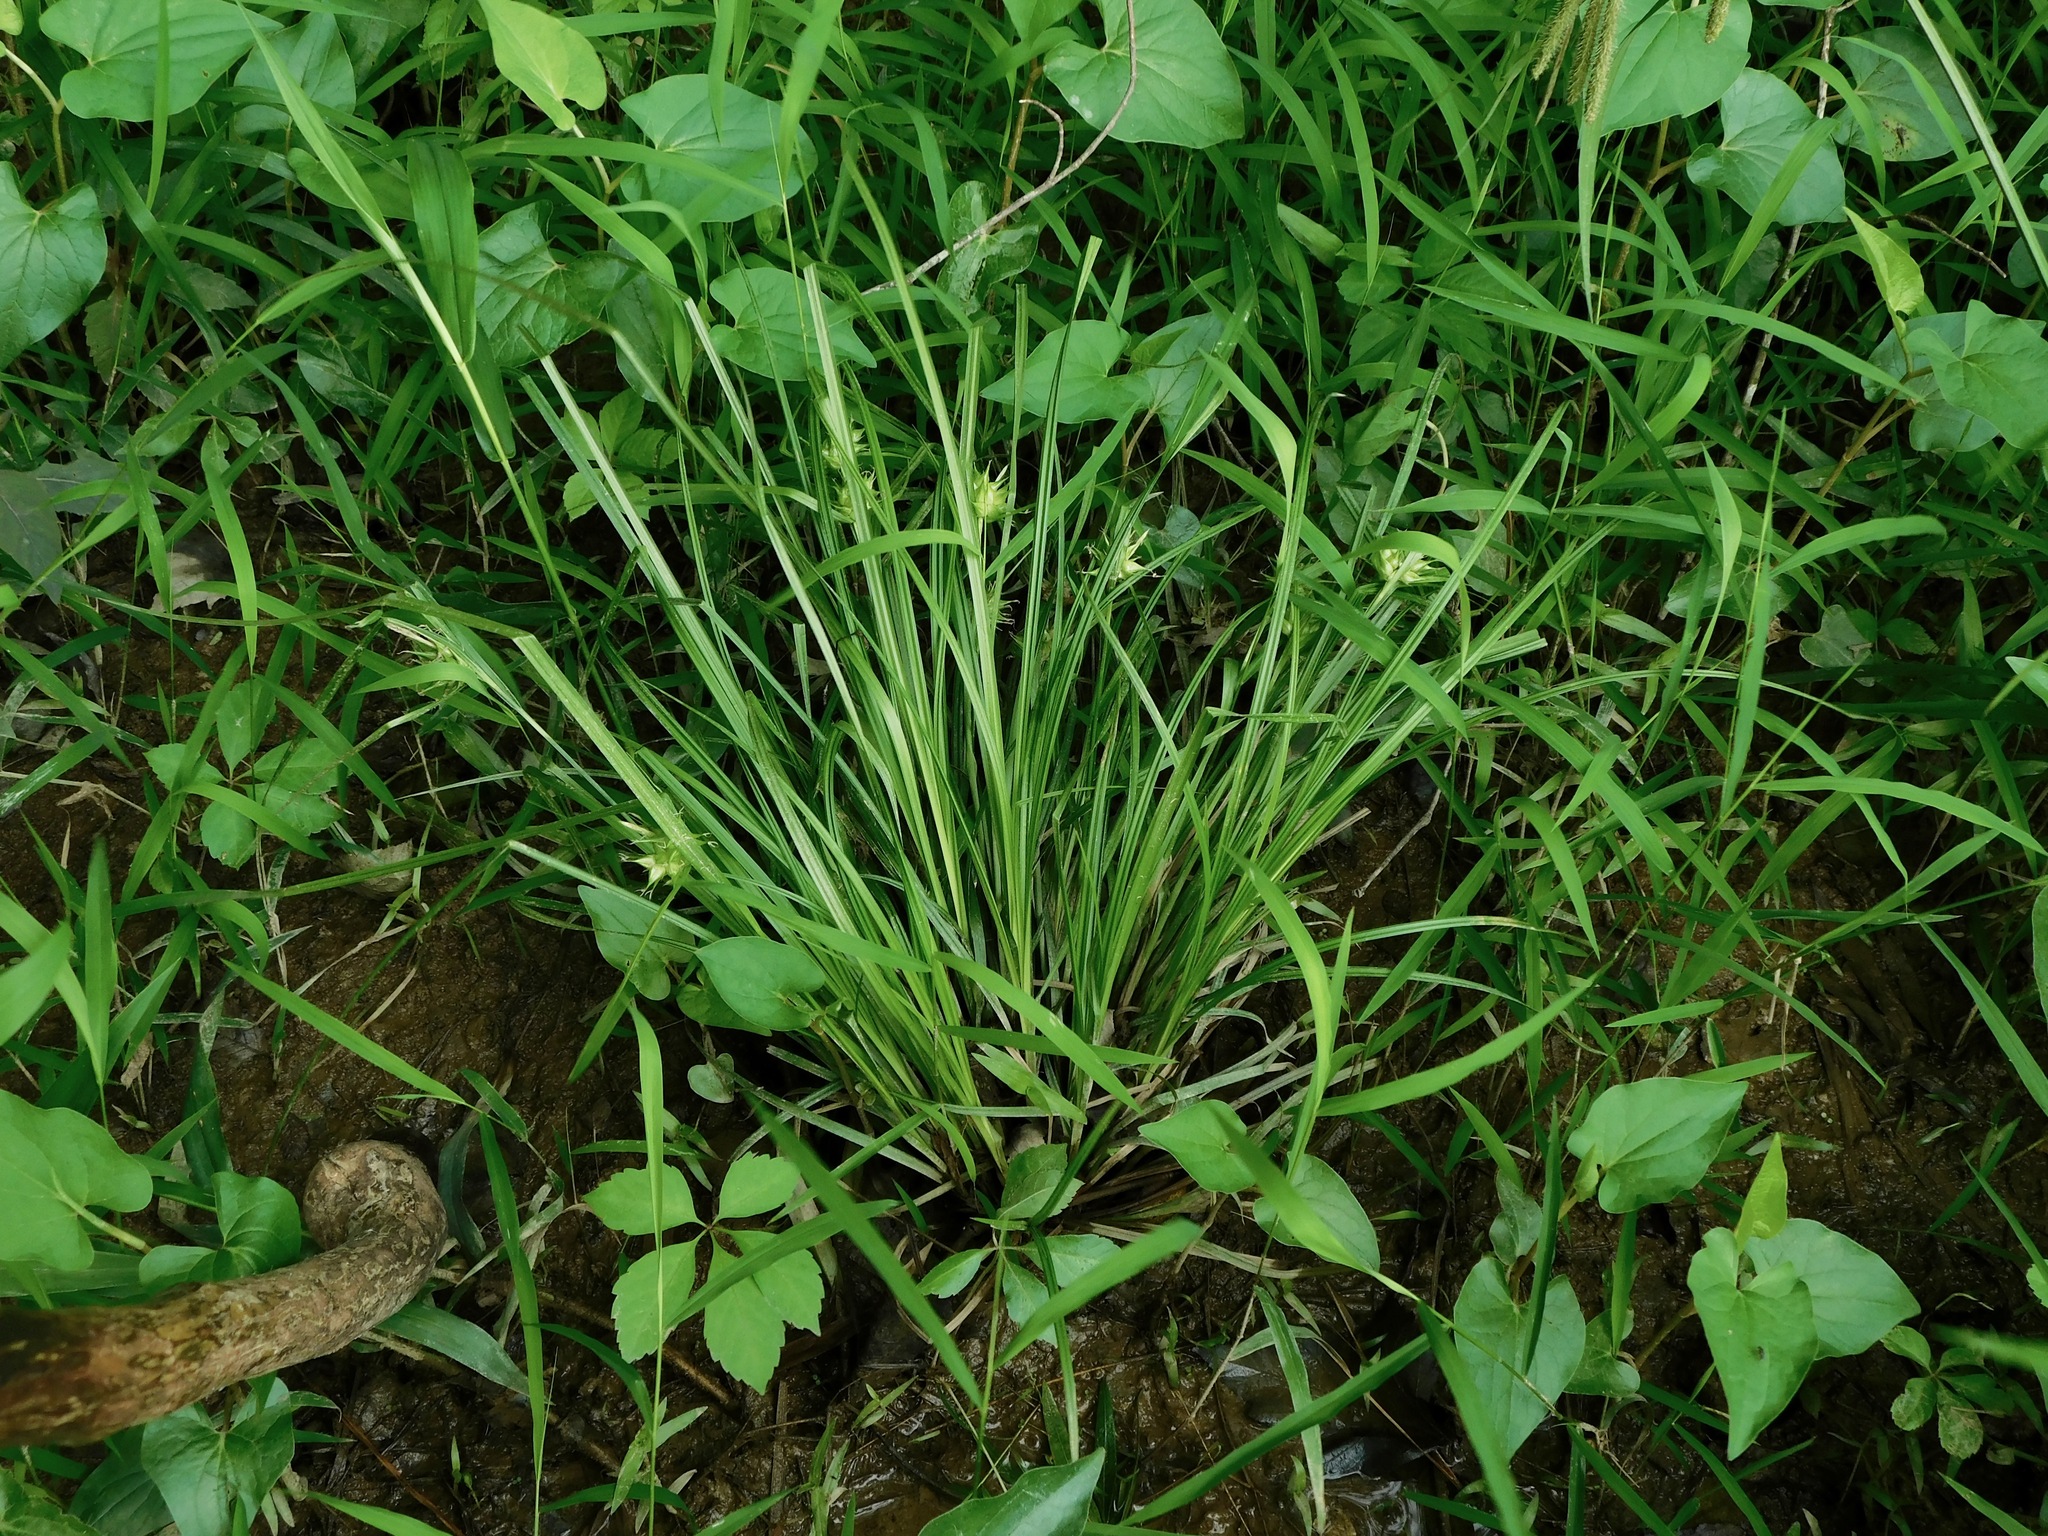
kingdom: Plantae
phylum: Tracheophyta
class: Liliopsida
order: Poales
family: Cyperaceae
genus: Carex
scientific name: Carex intumescens
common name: Greater bladder sedge
